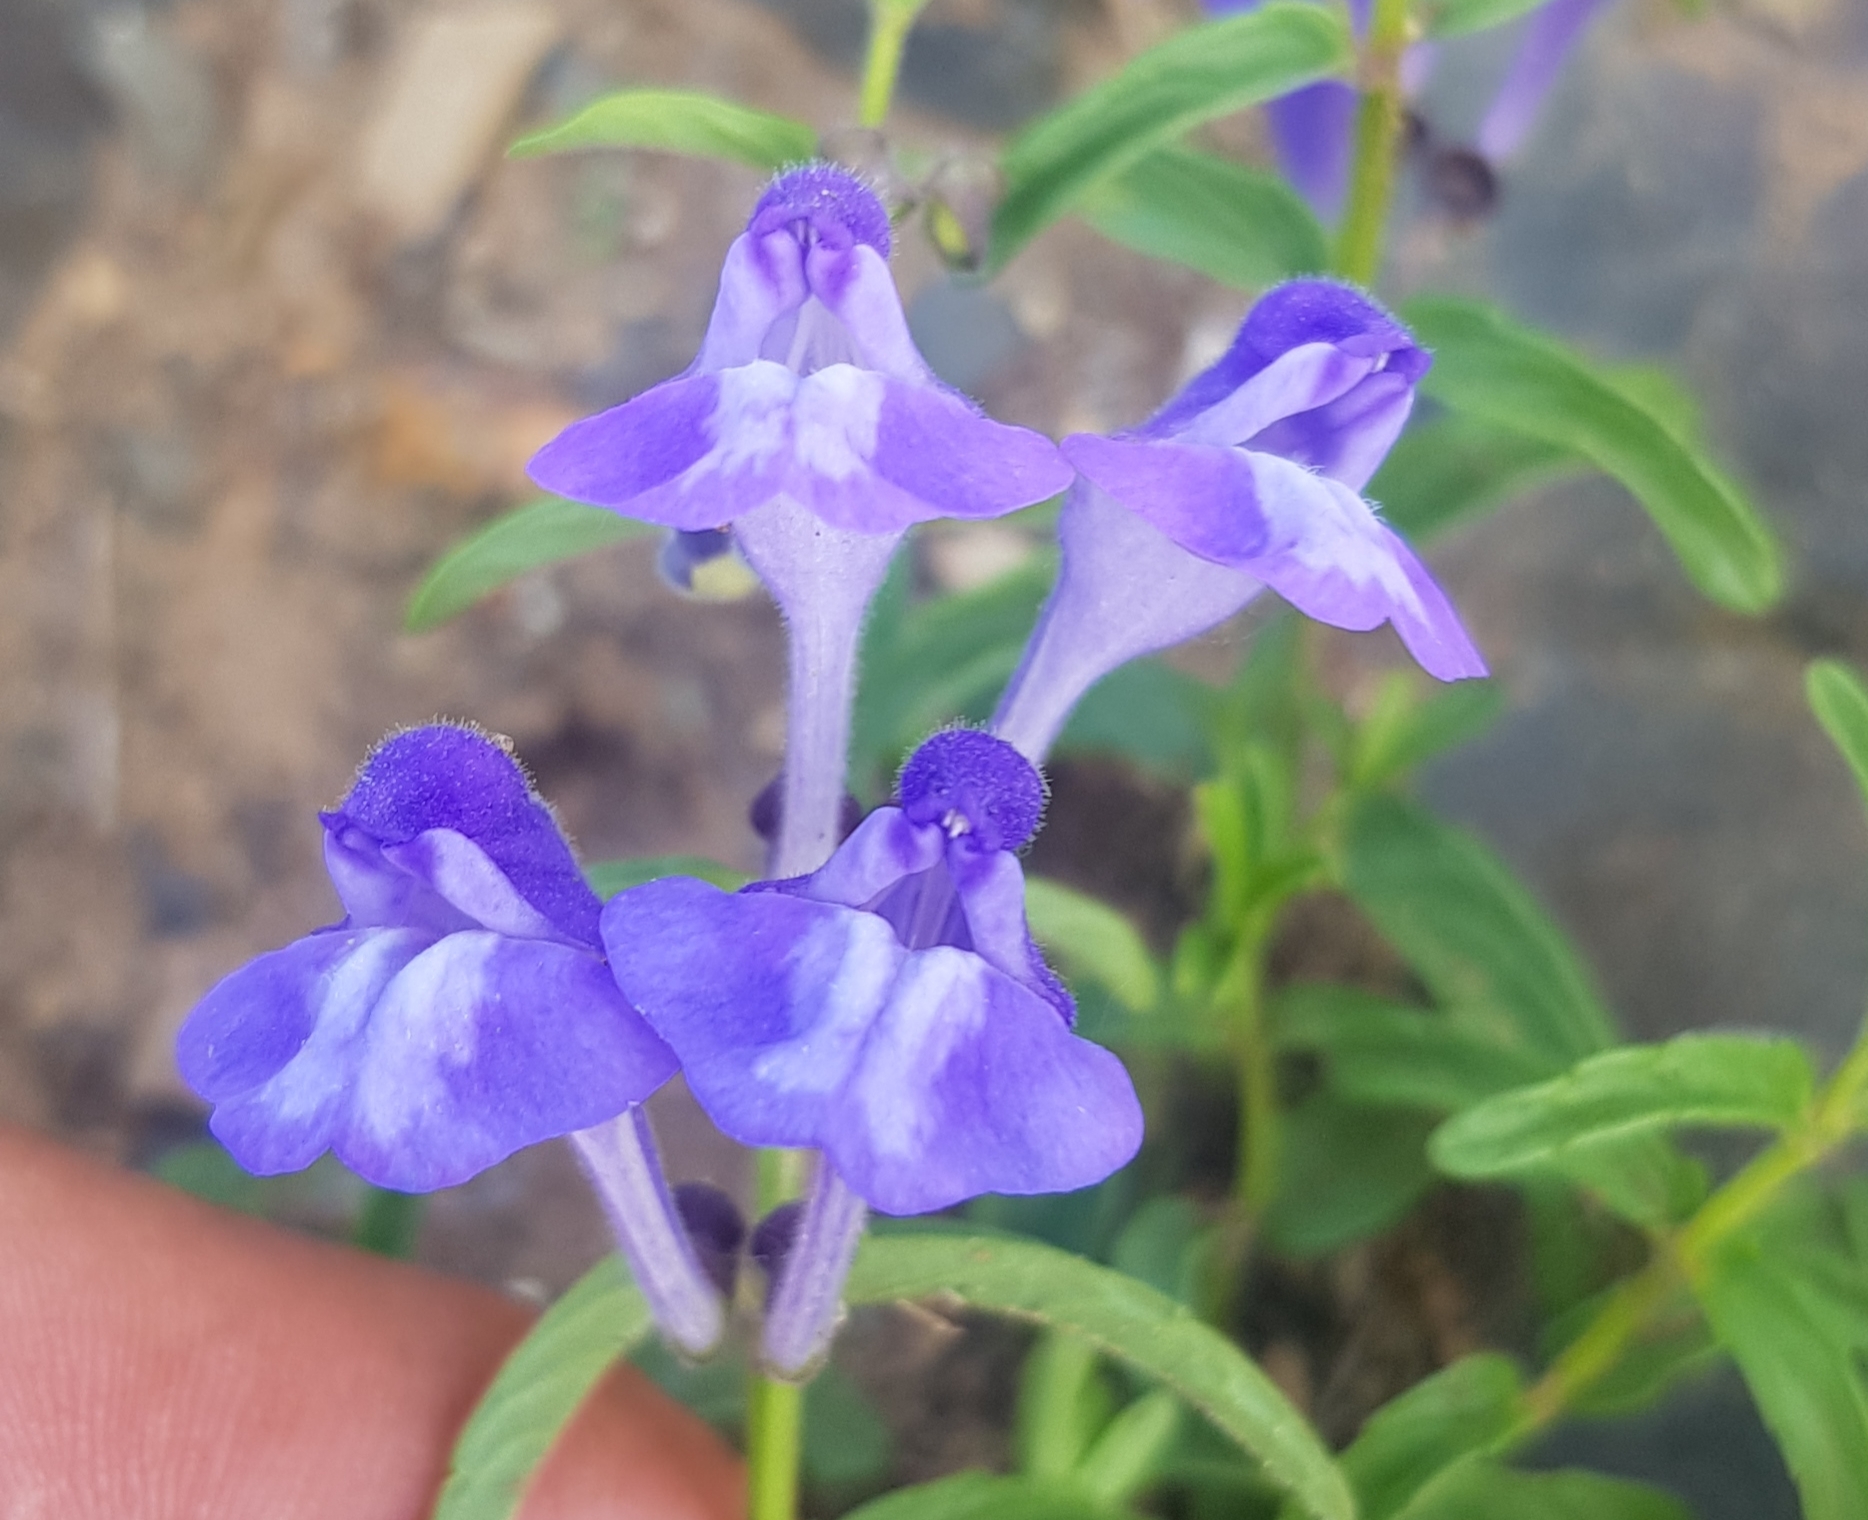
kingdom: Plantae
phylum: Tracheophyta
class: Magnoliopsida
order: Lamiales
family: Lamiaceae
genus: Scutellaria
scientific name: Scutellaria scordiifolia
